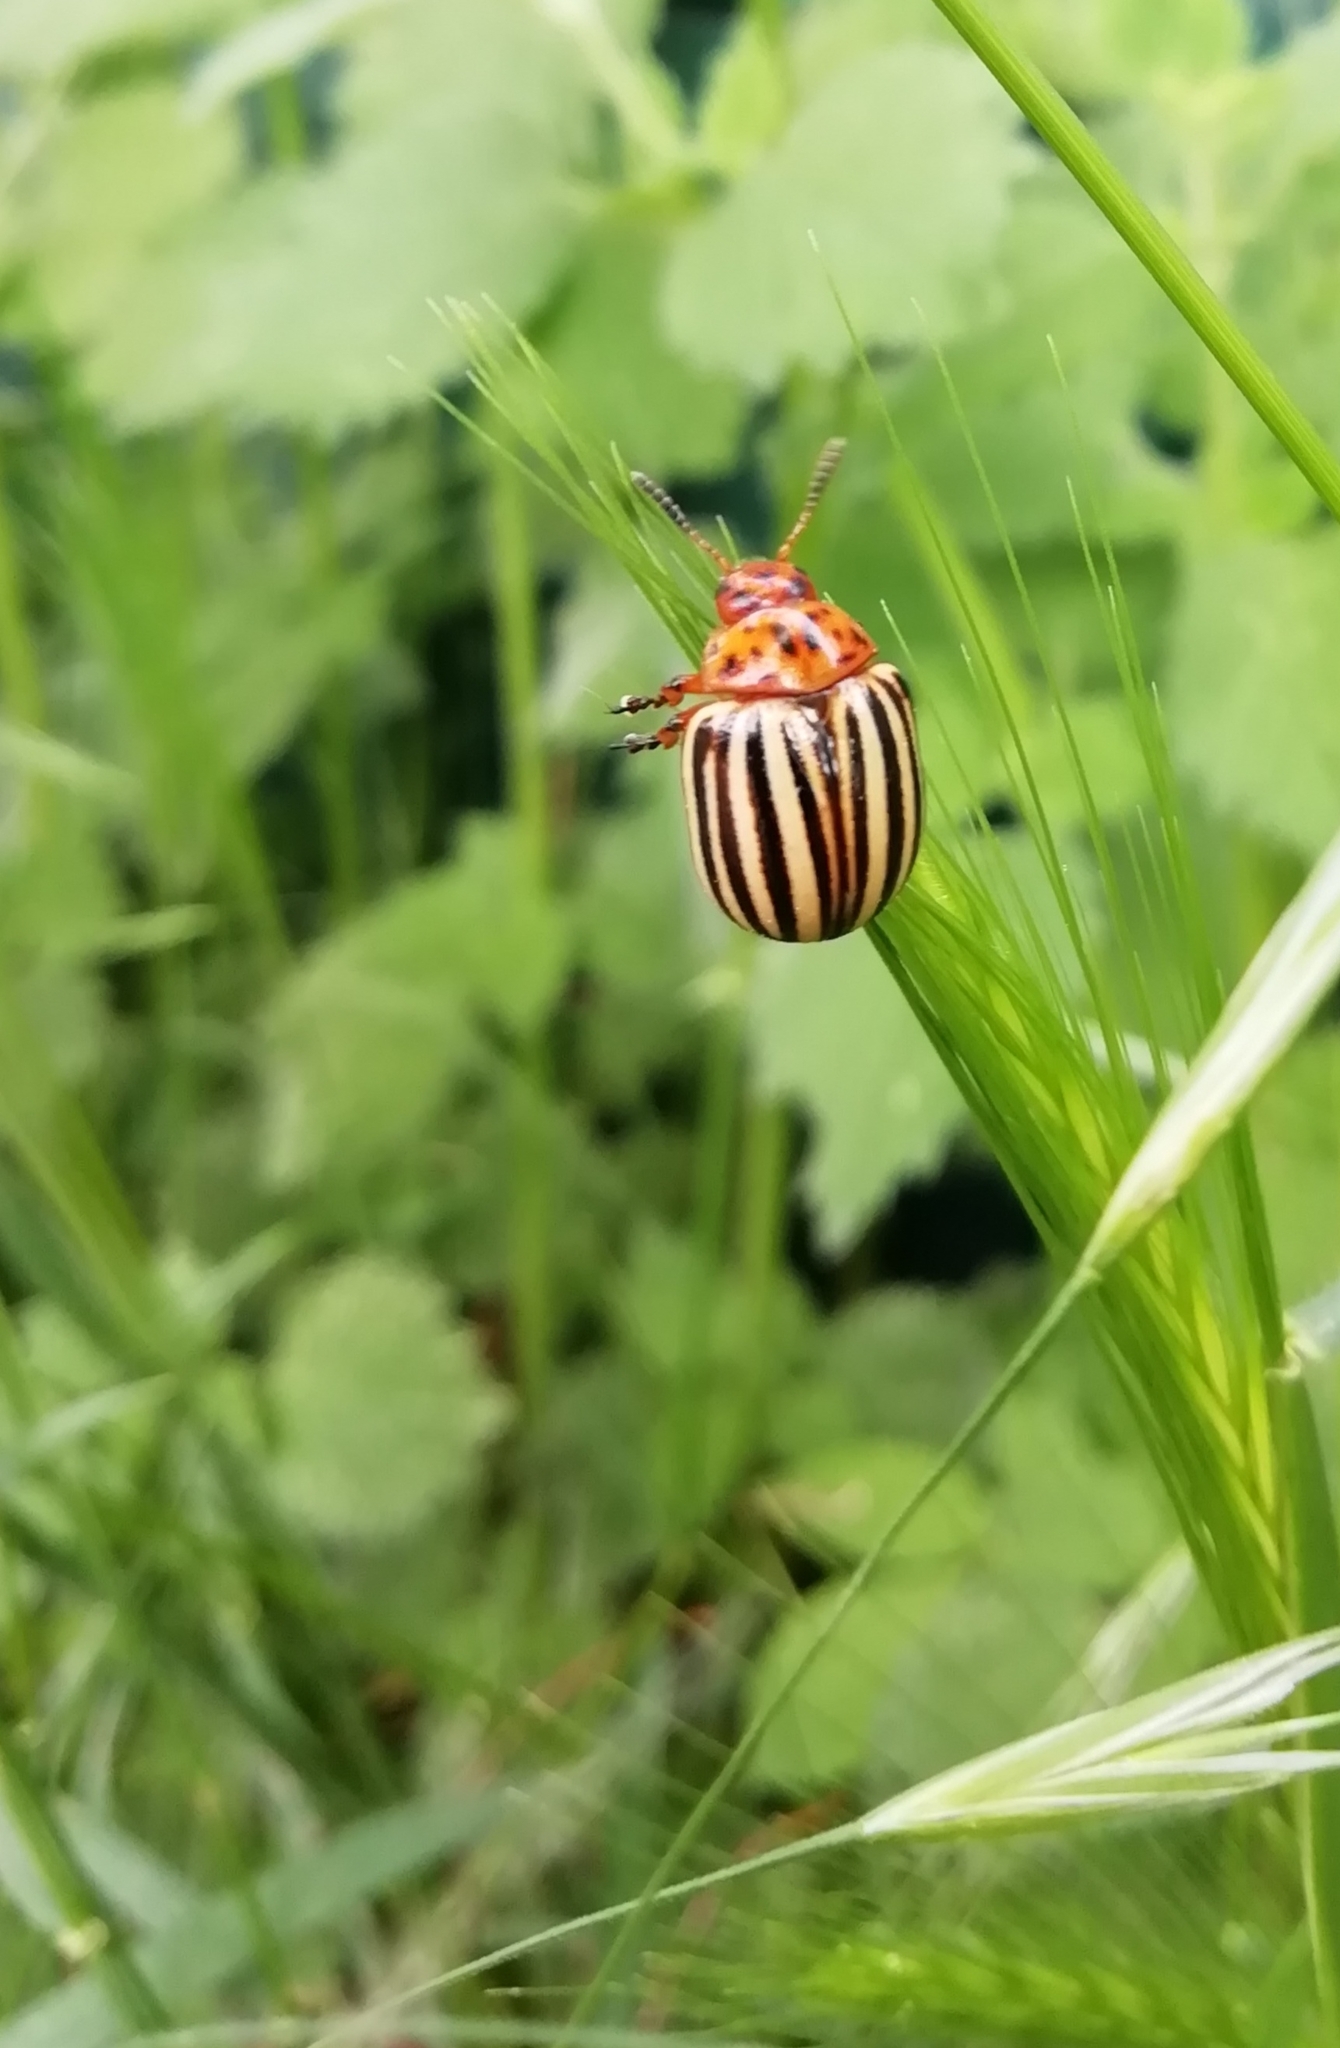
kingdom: Animalia
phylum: Arthropoda
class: Insecta
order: Coleoptera
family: Chrysomelidae
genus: Leptinotarsa
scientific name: Leptinotarsa decemlineata
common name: Colorado potato beetle
